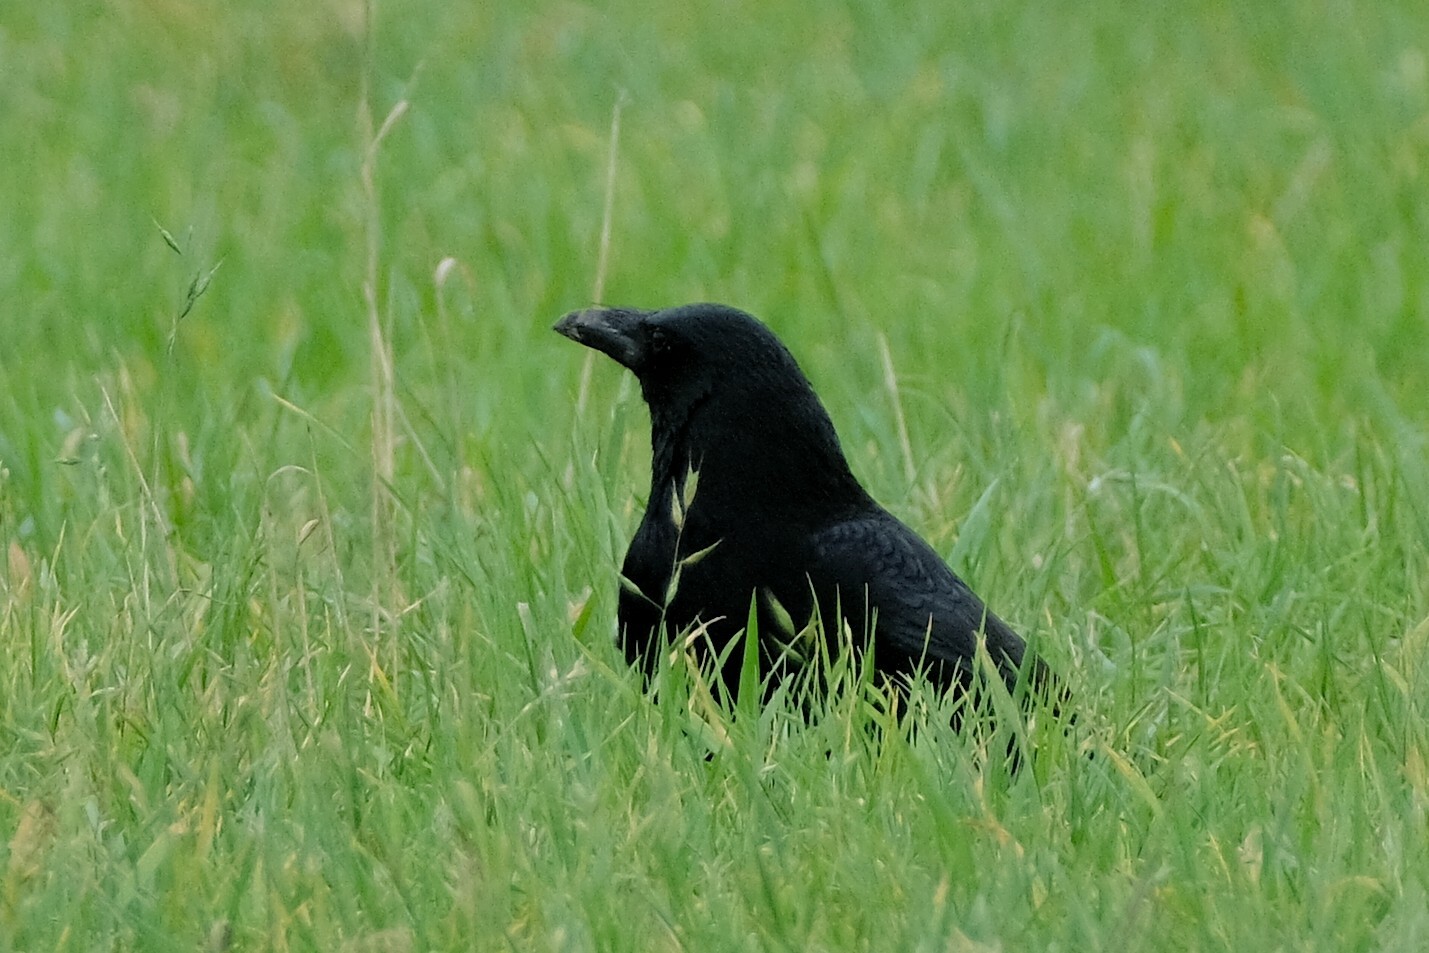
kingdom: Animalia
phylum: Chordata
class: Aves
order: Passeriformes
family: Corvidae
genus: Corvus
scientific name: Corvus corone
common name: Carrion crow
